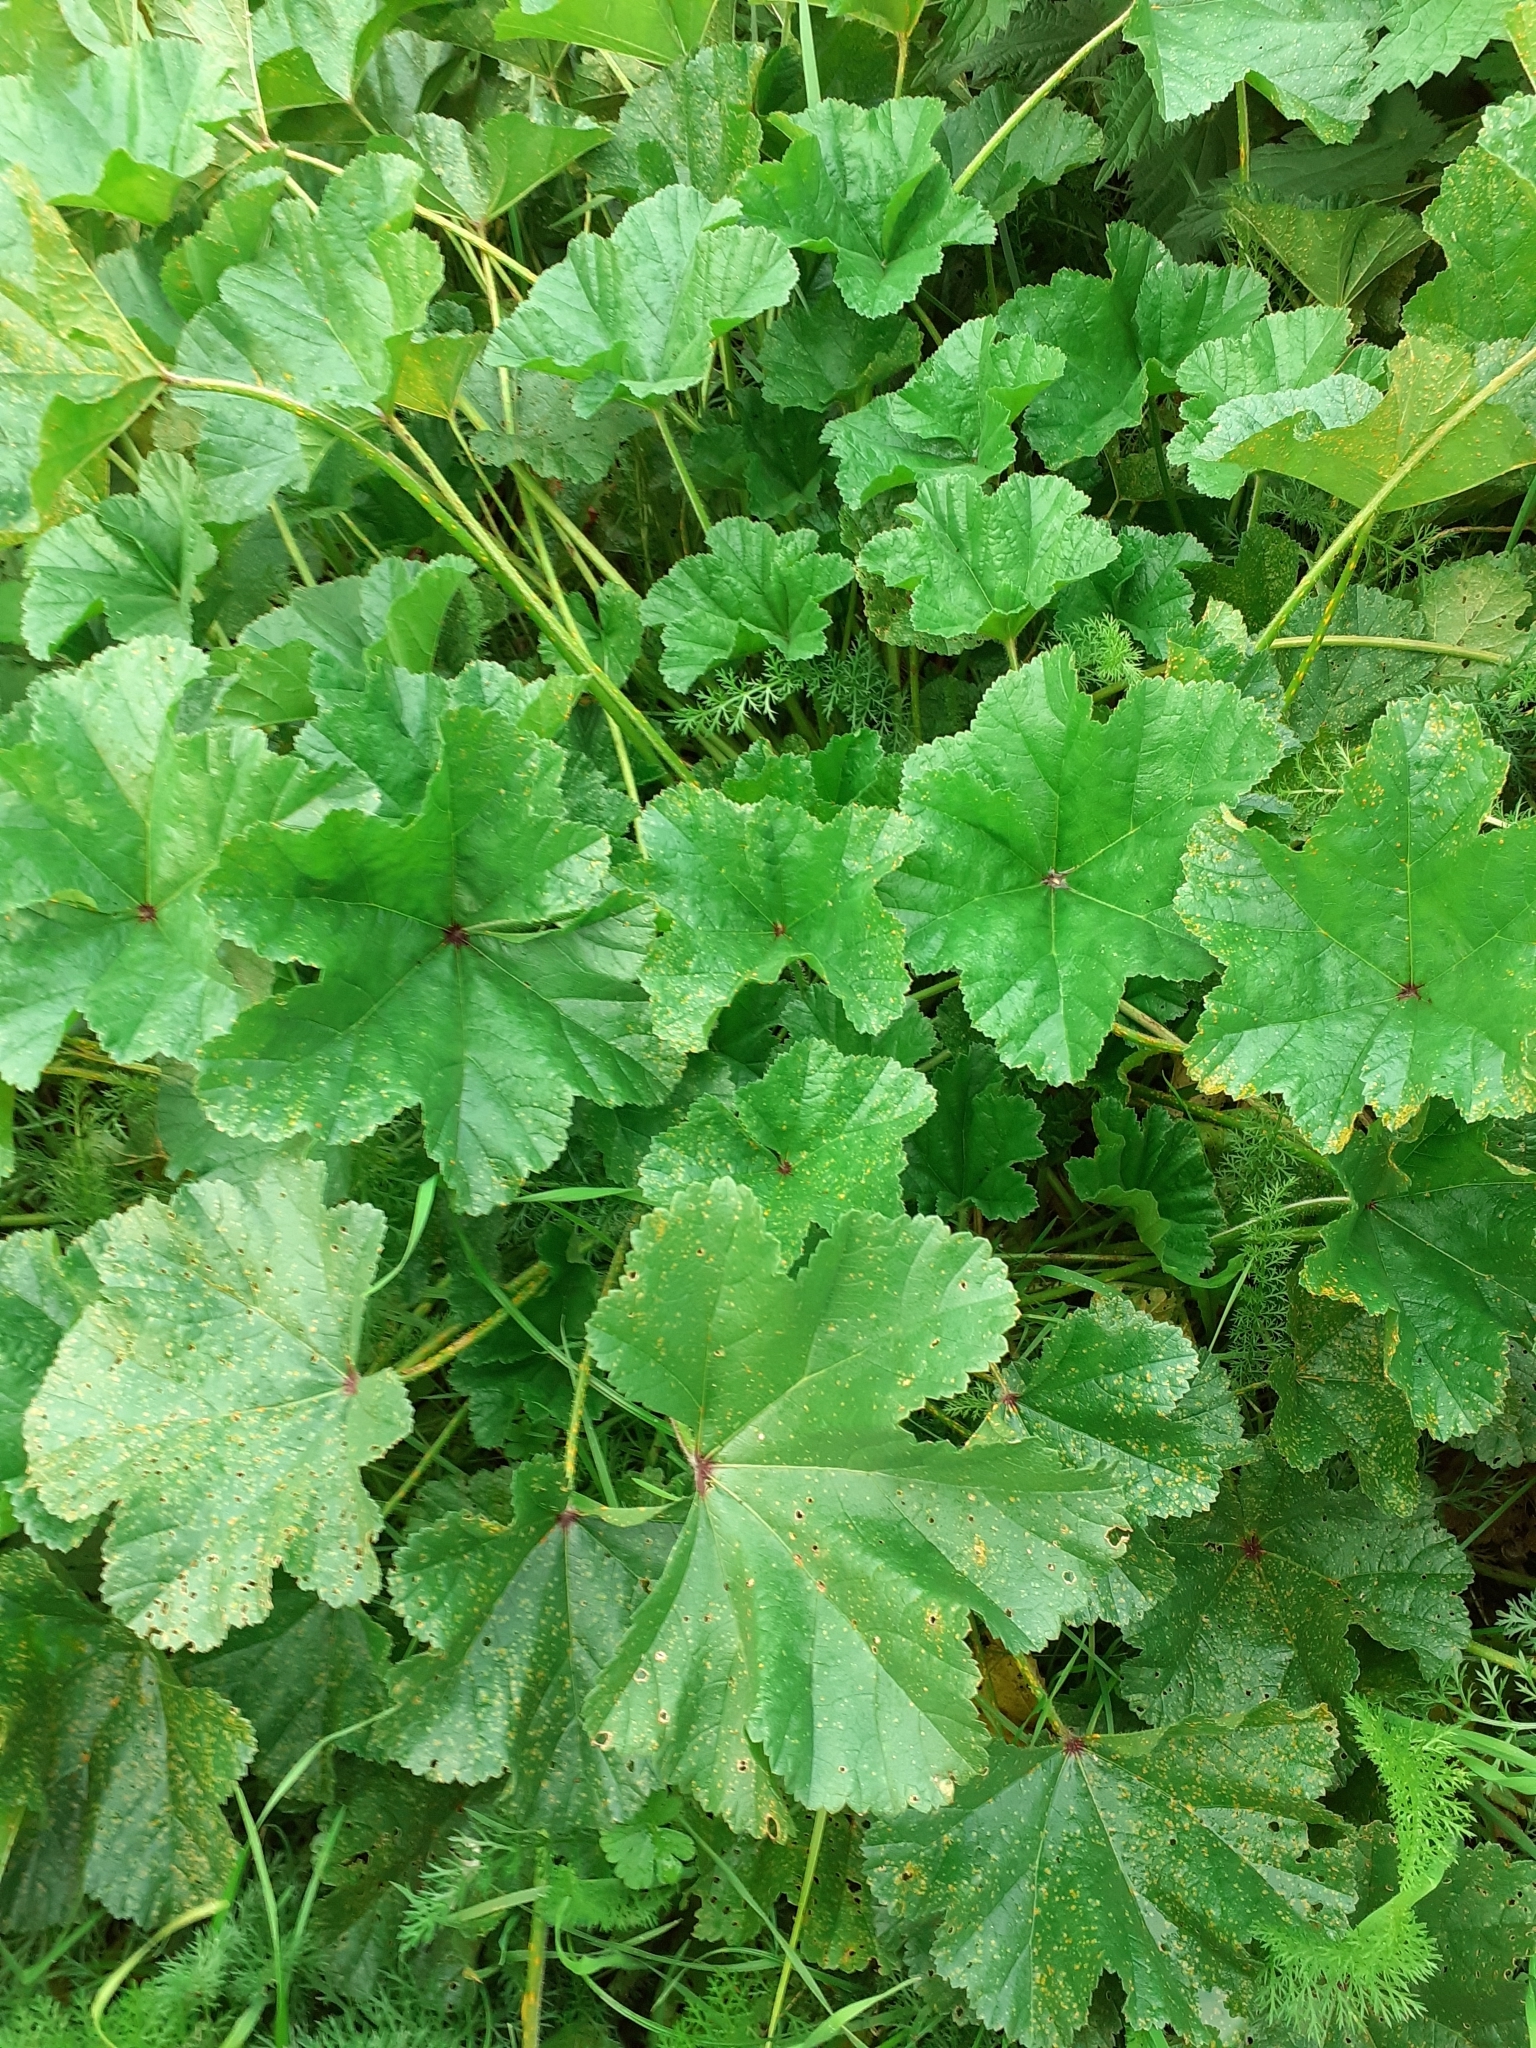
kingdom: Plantae
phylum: Tracheophyta
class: Magnoliopsida
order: Malvales
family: Malvaceae
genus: Malva
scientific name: Malva sylvestris
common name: Common mallow
